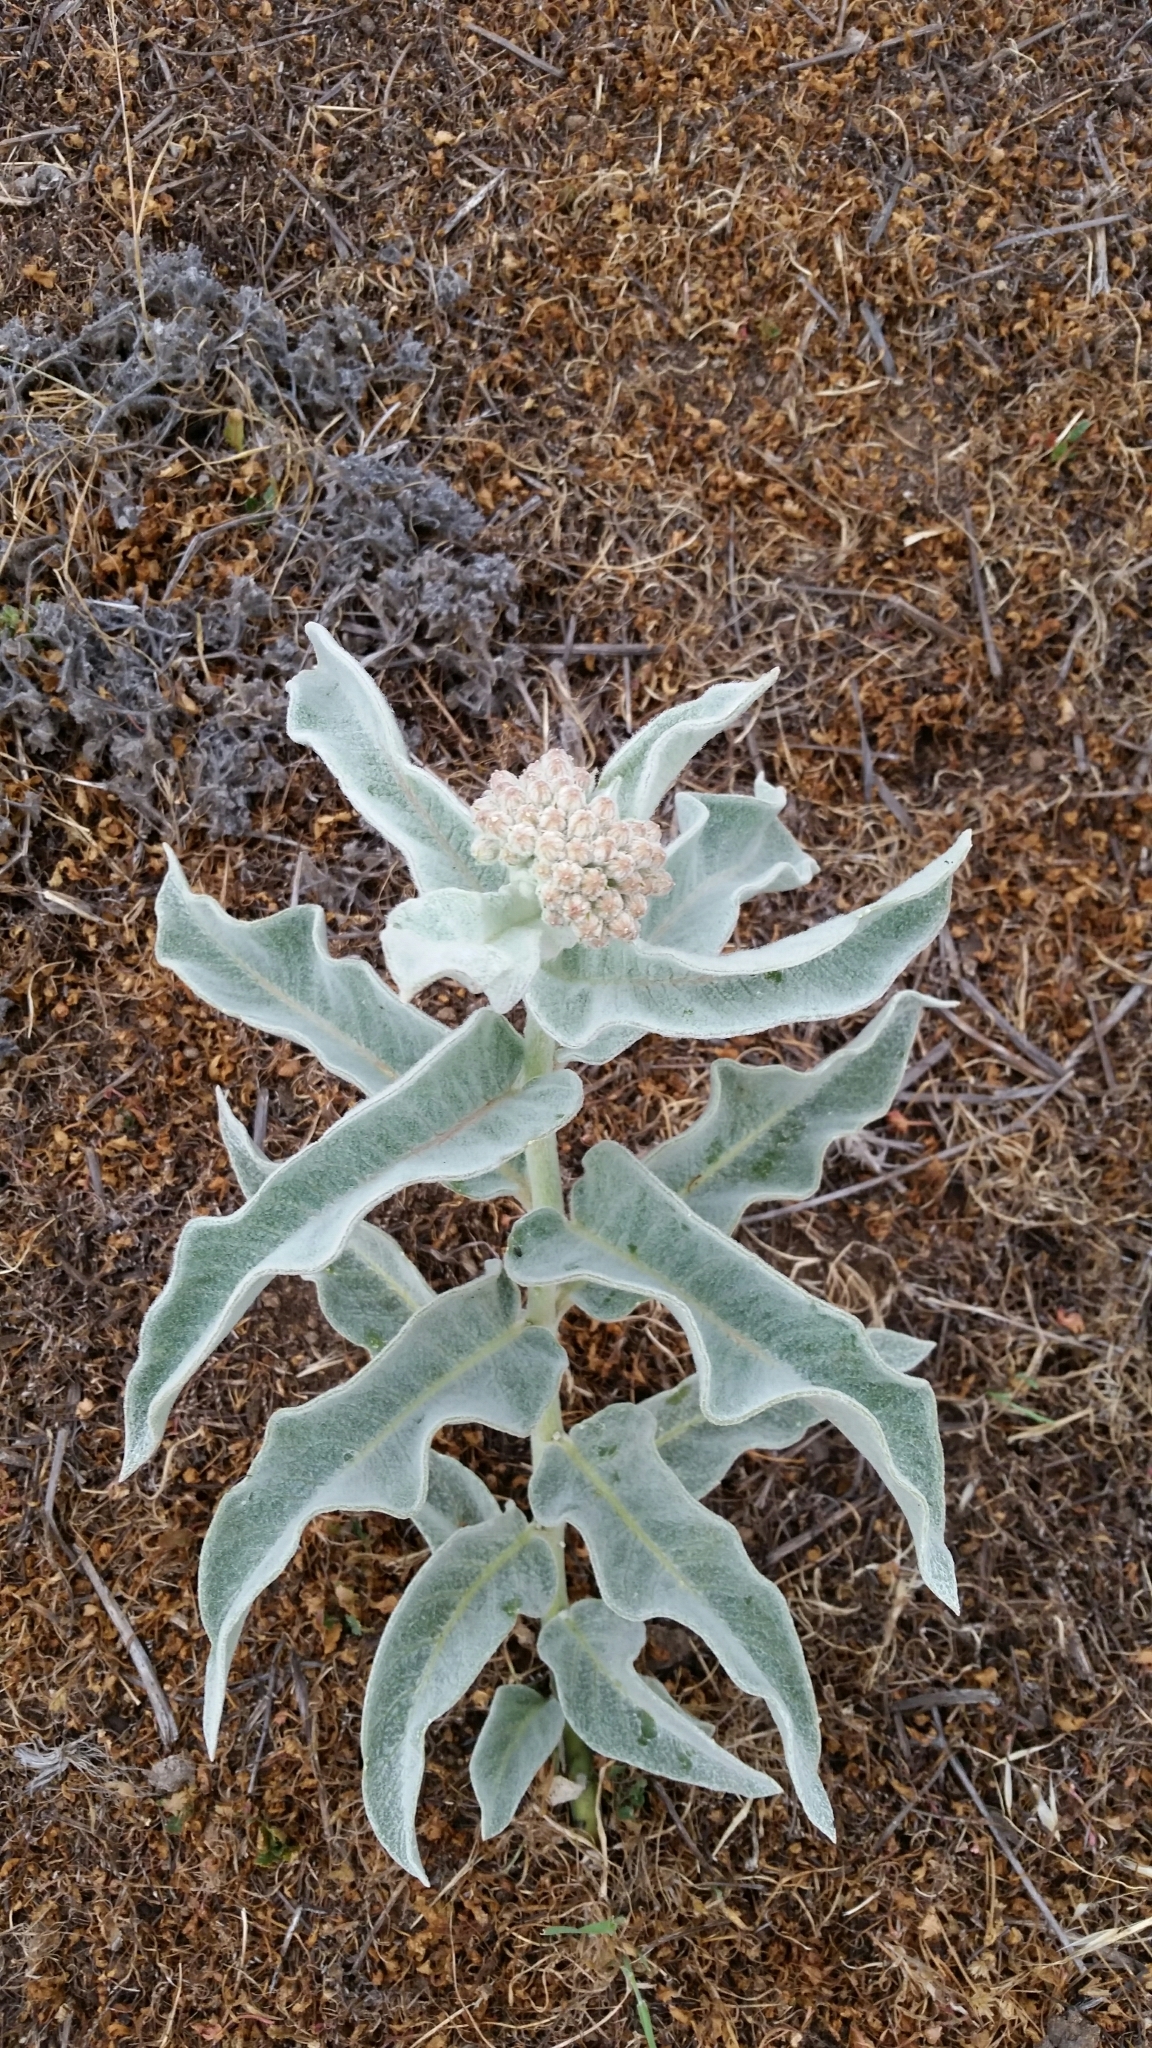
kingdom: Plantae
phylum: Tracheophyta
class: Magnoliopsida
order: Gentianales
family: Apocynaceae
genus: Asclepias
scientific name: Asclepias eriocarpa
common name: Indian milkweed
